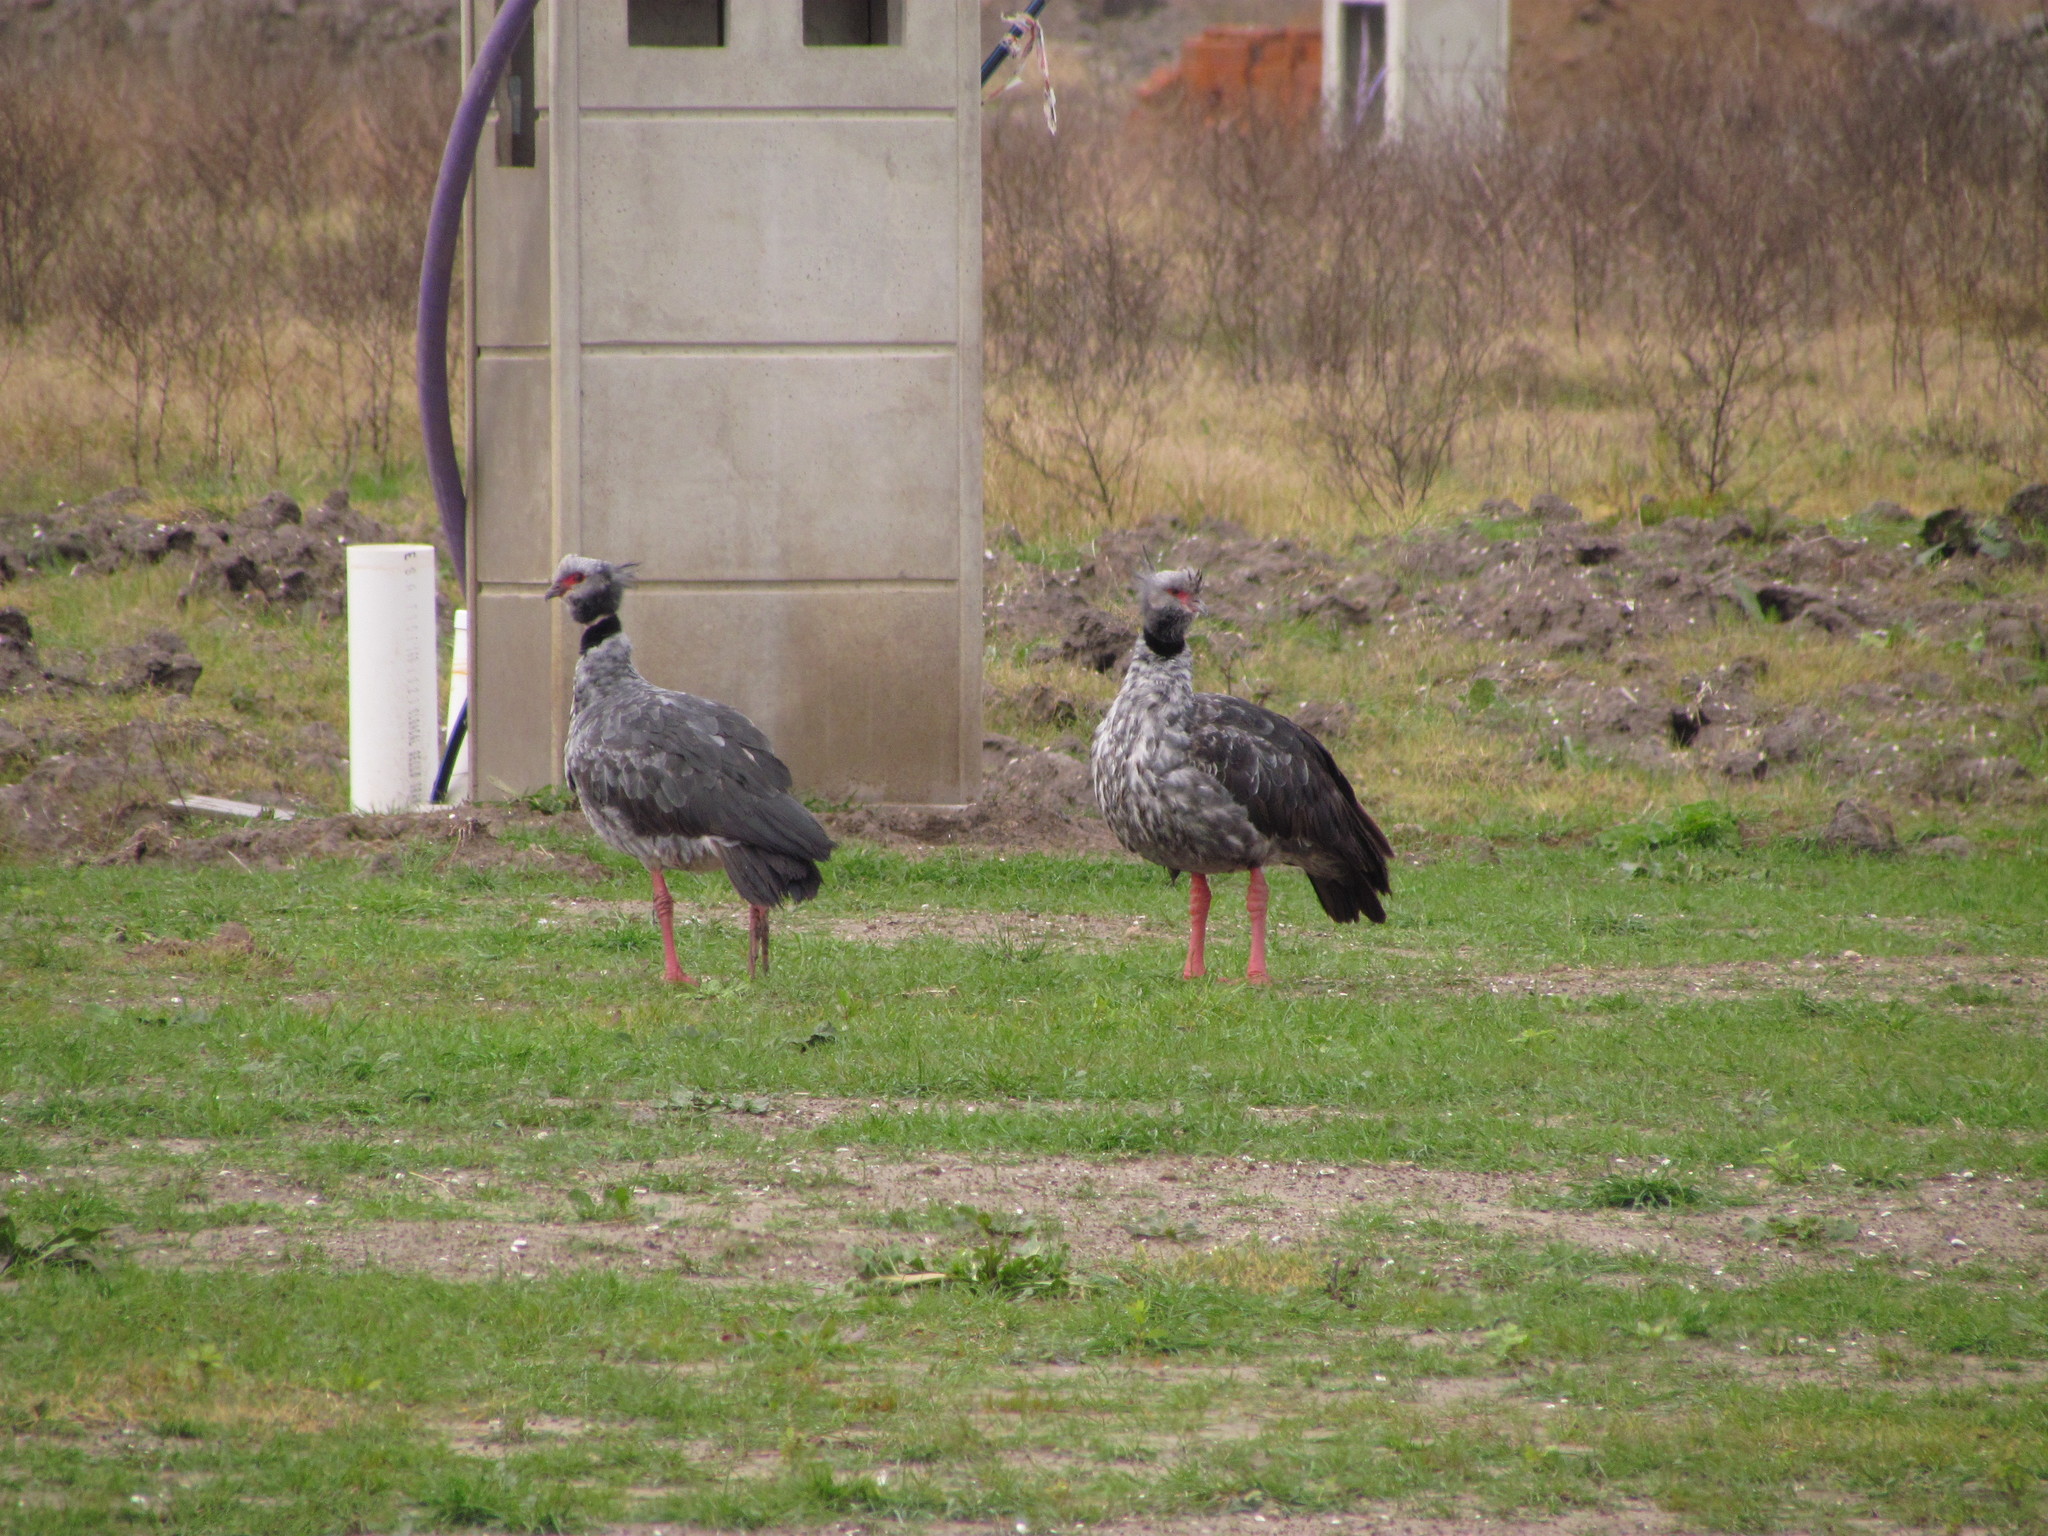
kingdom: Animalia
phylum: Chordata
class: Aves
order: Anseriformes
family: Anhimidae
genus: Chauna
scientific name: Chauna torquata
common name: Southern screamer
